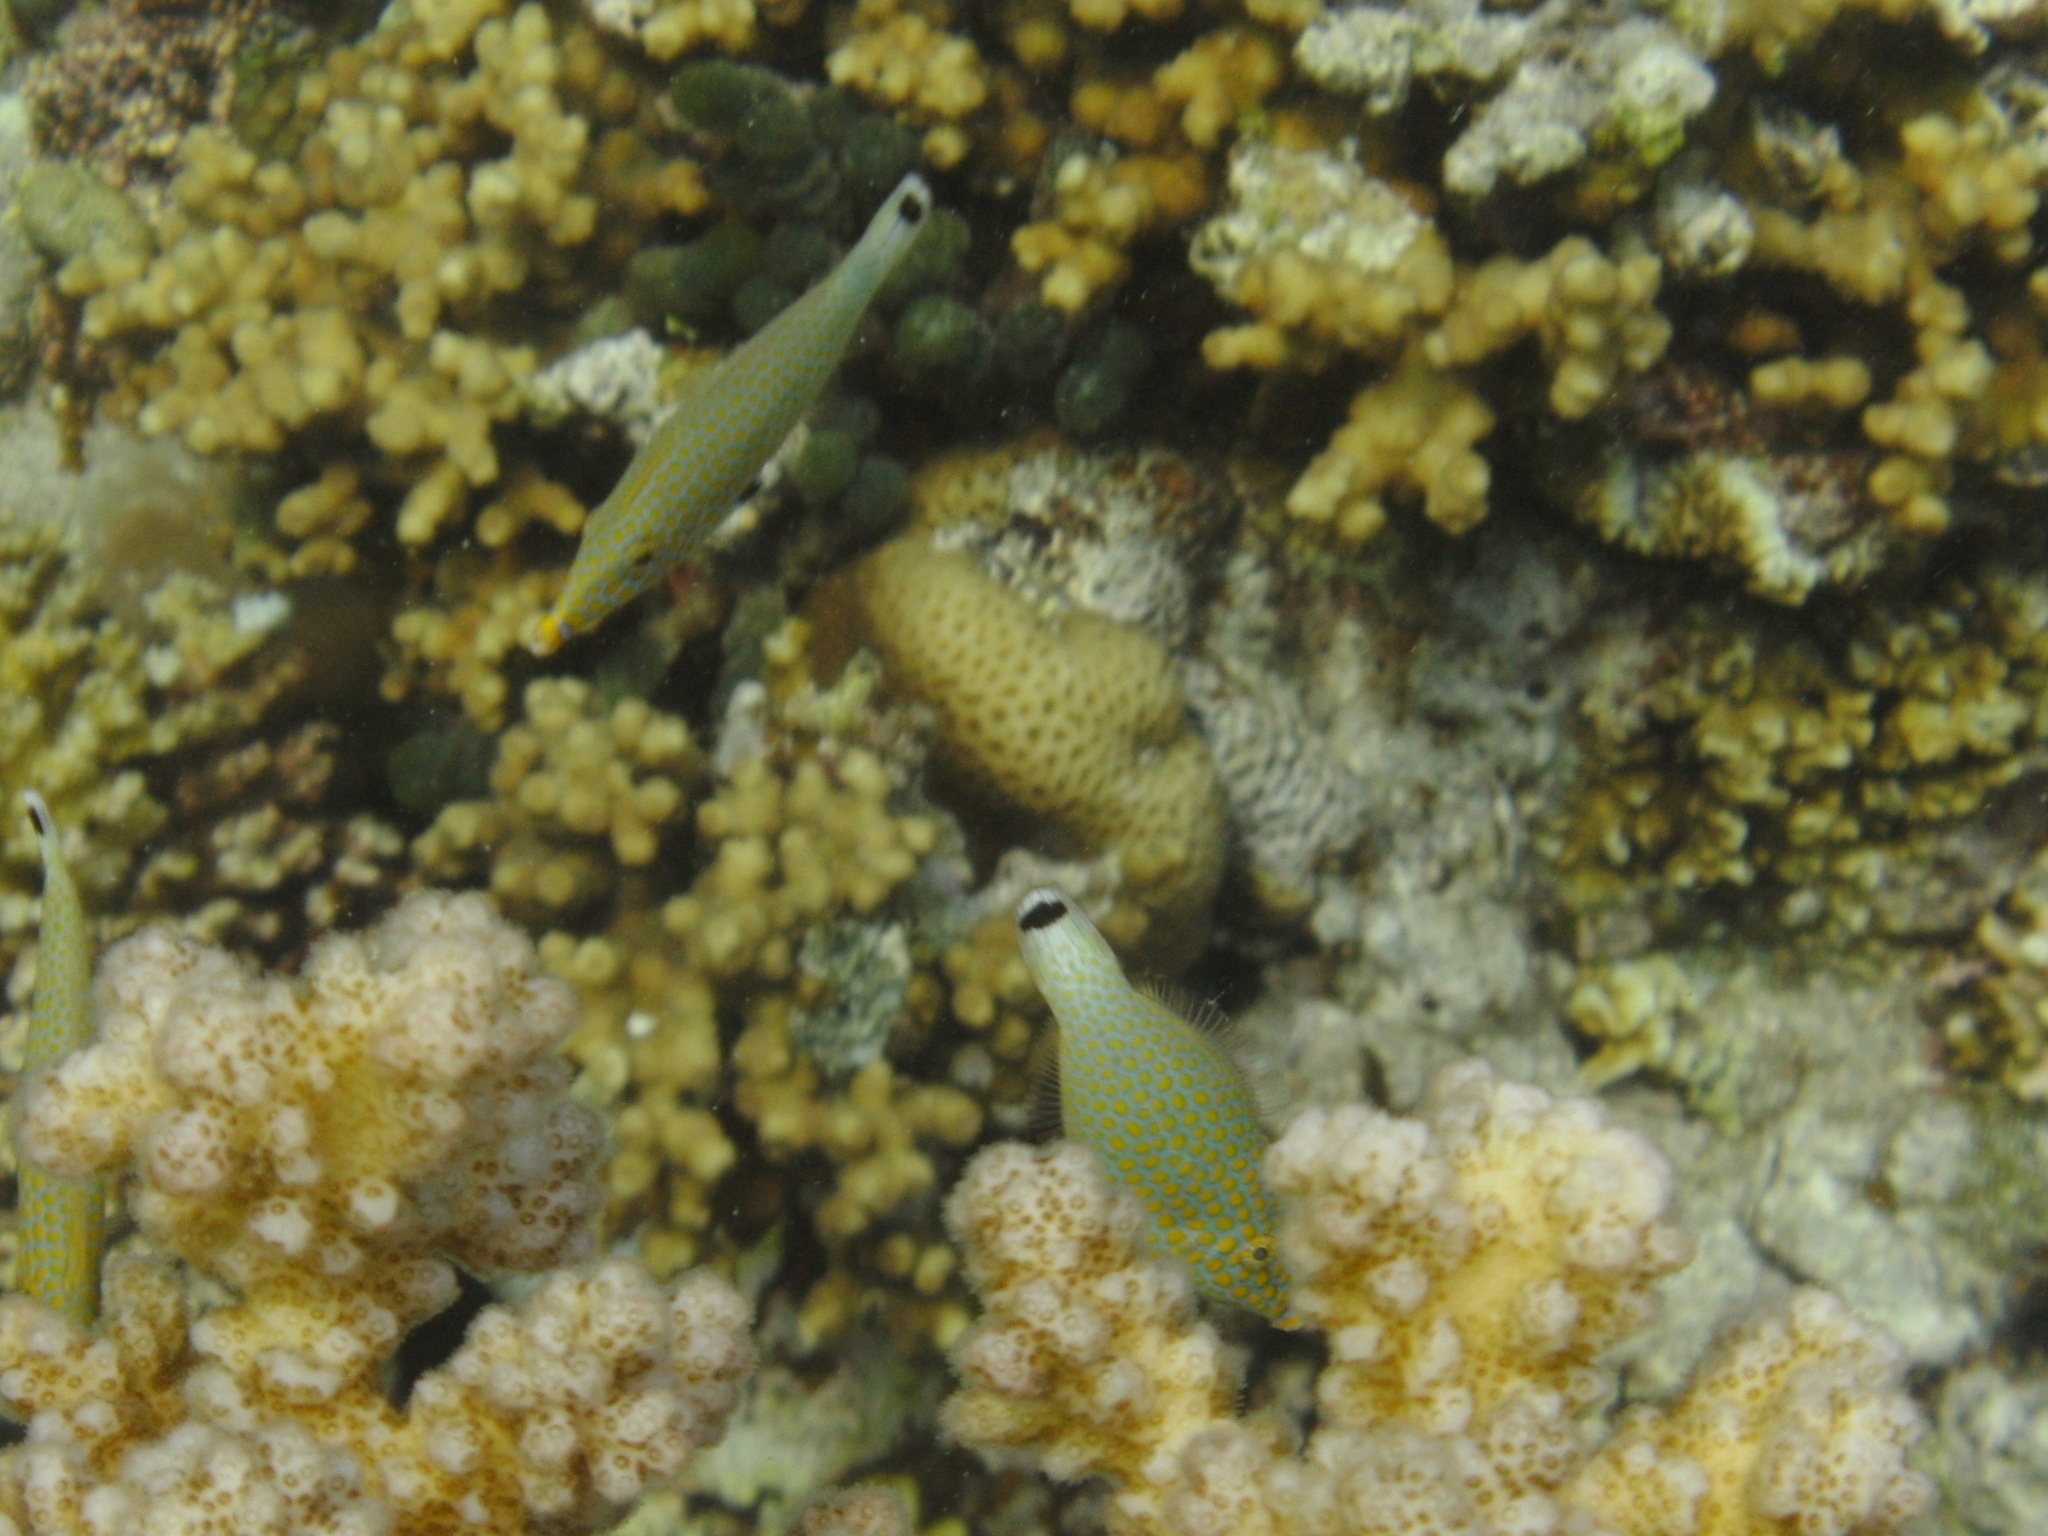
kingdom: Animalia
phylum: Chordata
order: Tetraodontiformes
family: Monacanthidae
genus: Oxymonacanthus
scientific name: Oxymonacanthus halli
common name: Red sea harlequin filefish
